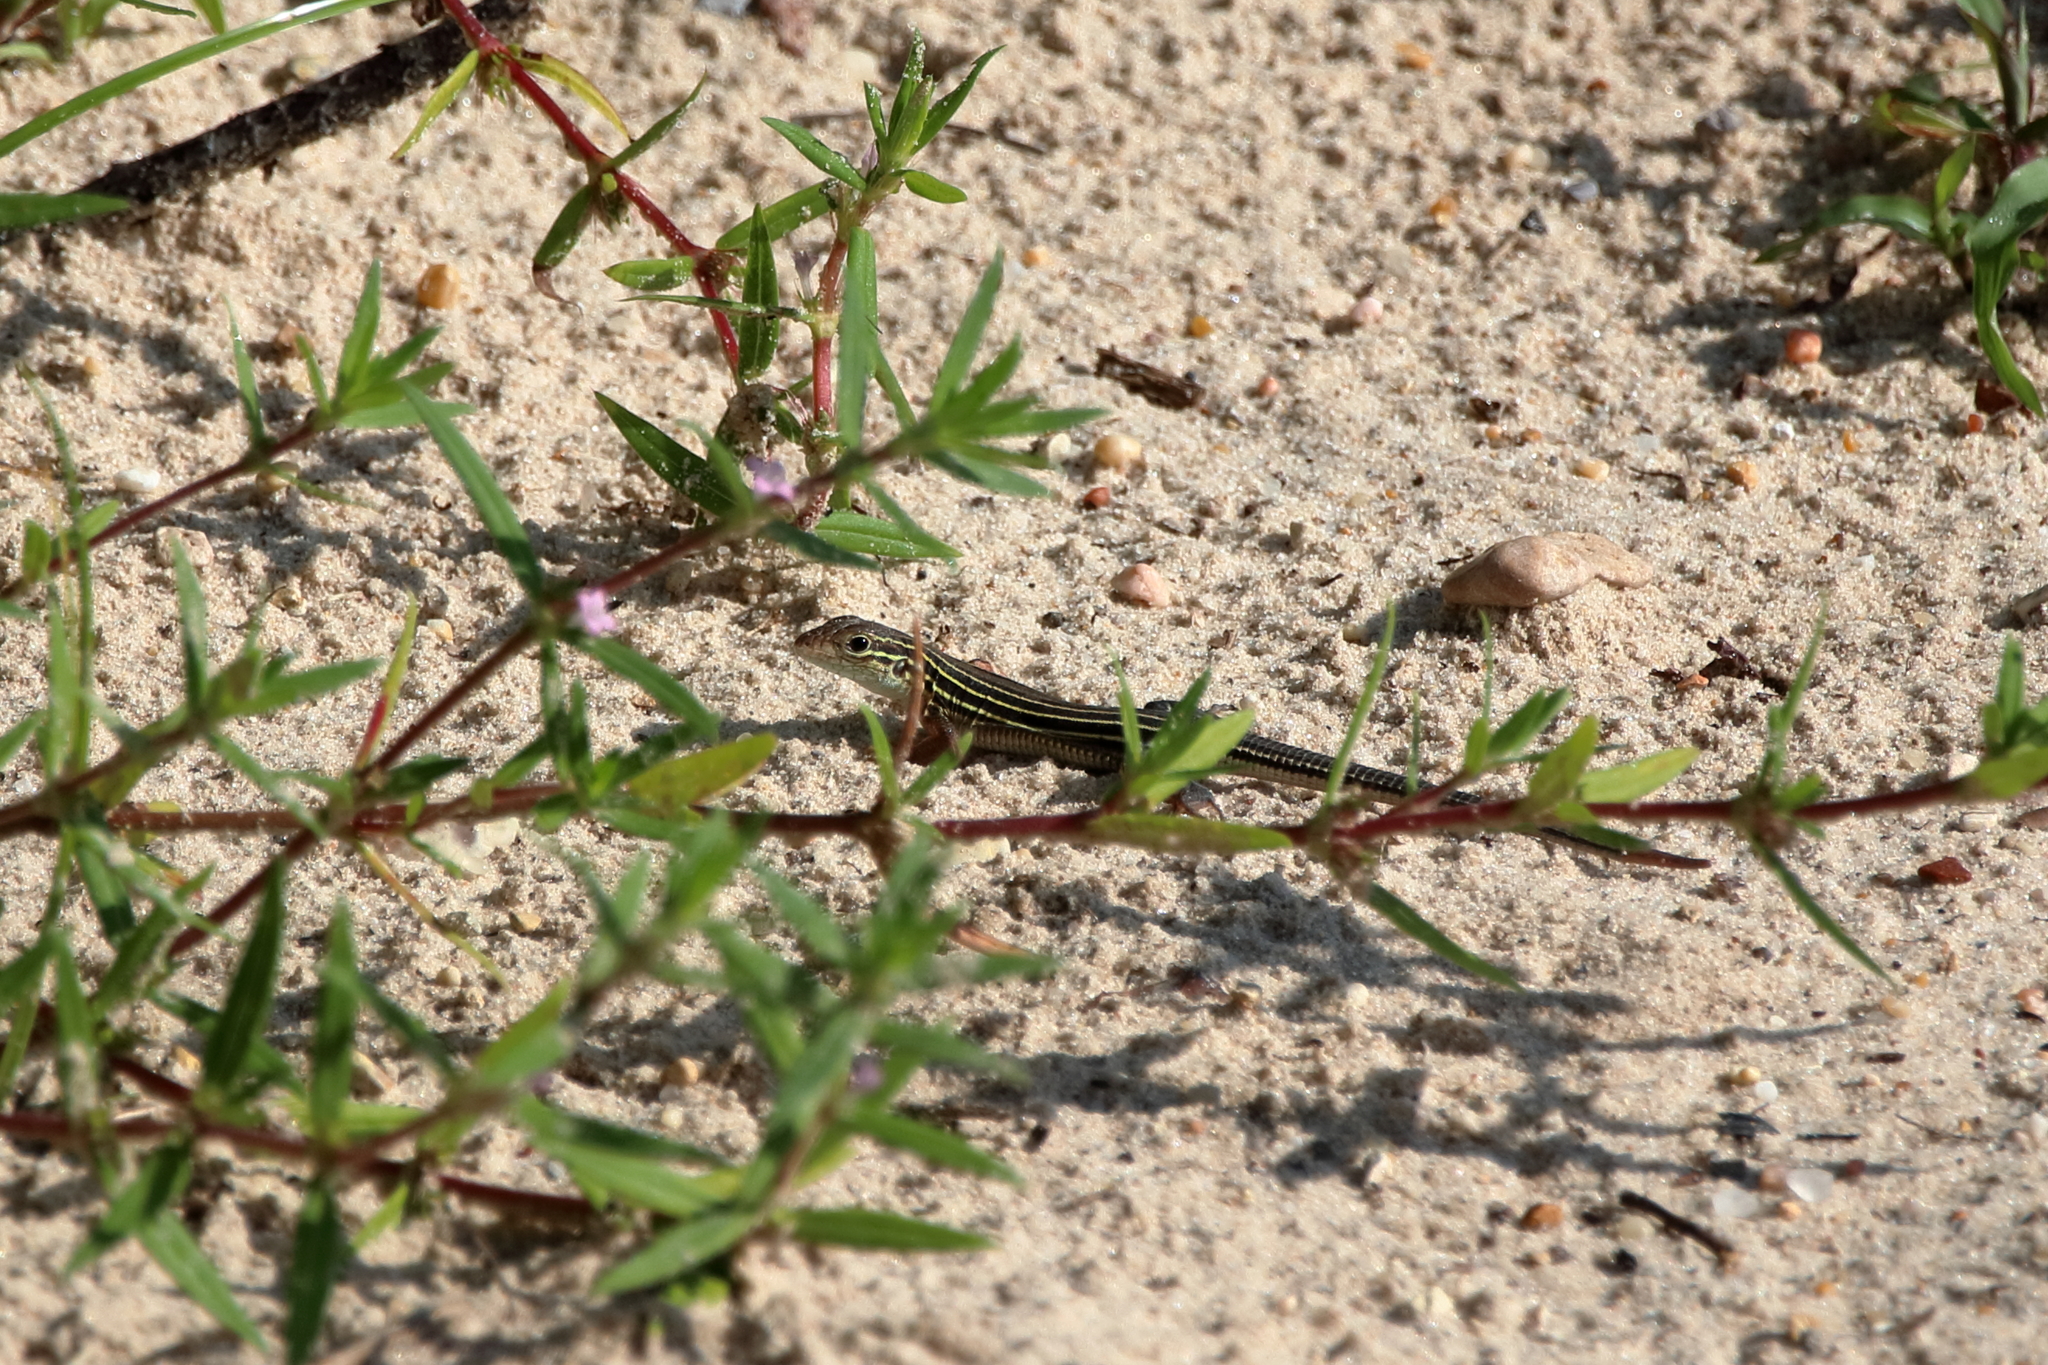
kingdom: Animalia
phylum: Chordata
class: Squamata
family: Teiidae
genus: Aspidoscelis
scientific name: Aspidoscelis sexlineatus
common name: Six-lined racerunner
